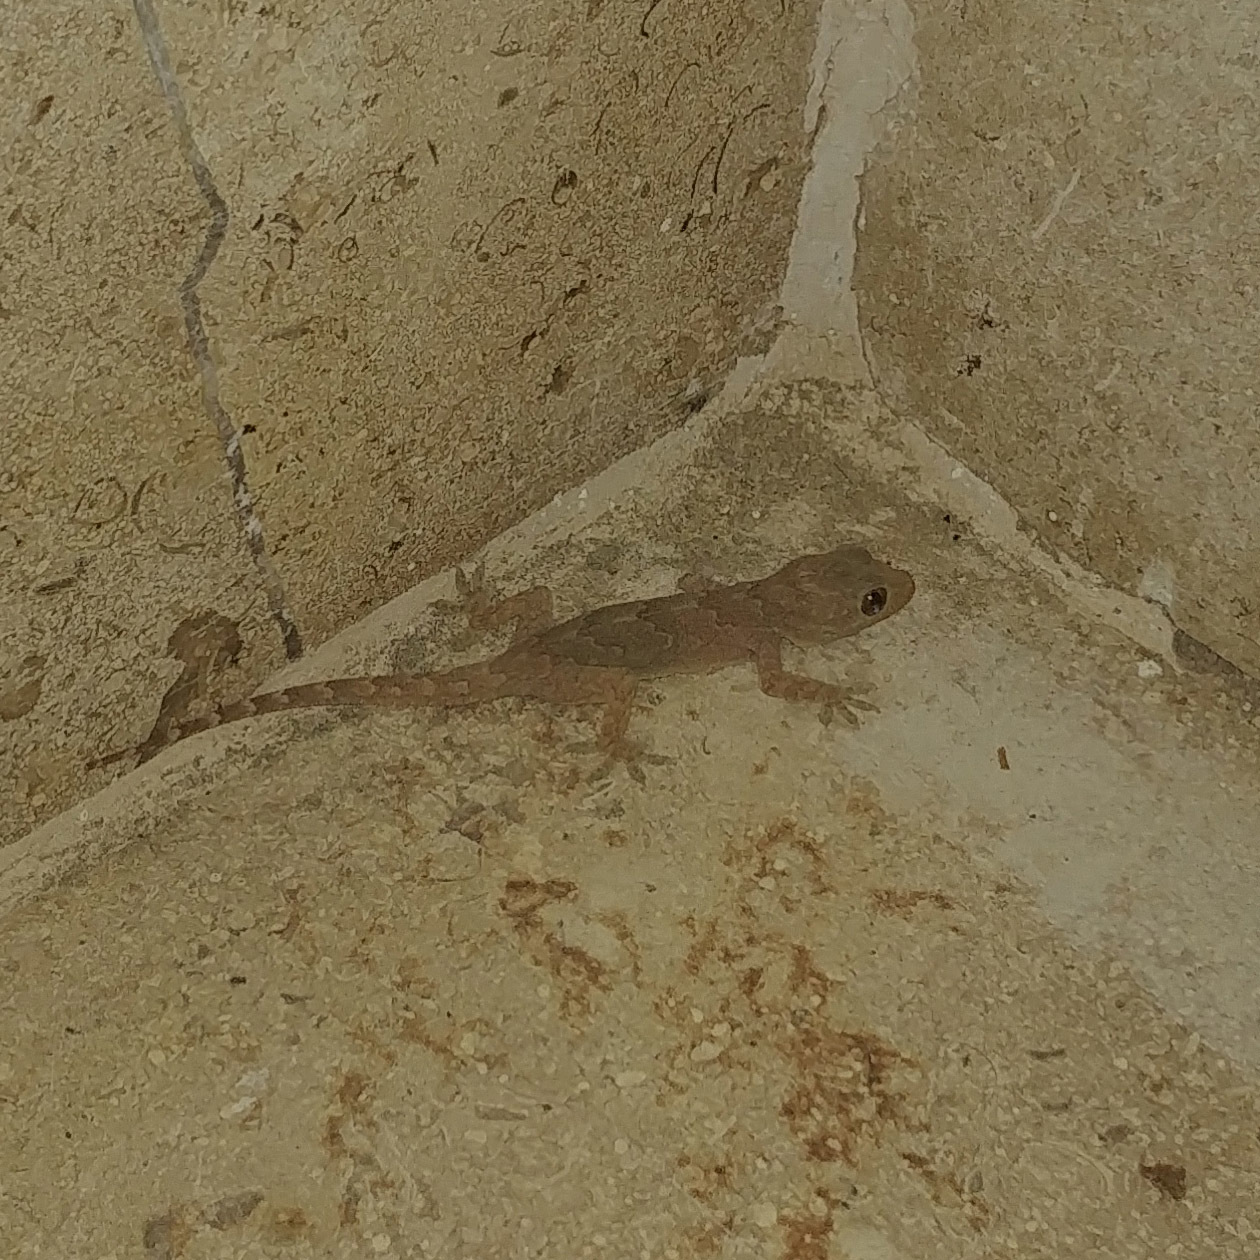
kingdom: Animalia
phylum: Chordata
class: Squamata
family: Gekkonidae
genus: Hemidactylus
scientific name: Hemidactylus flaviviridis
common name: Northern house gecko
